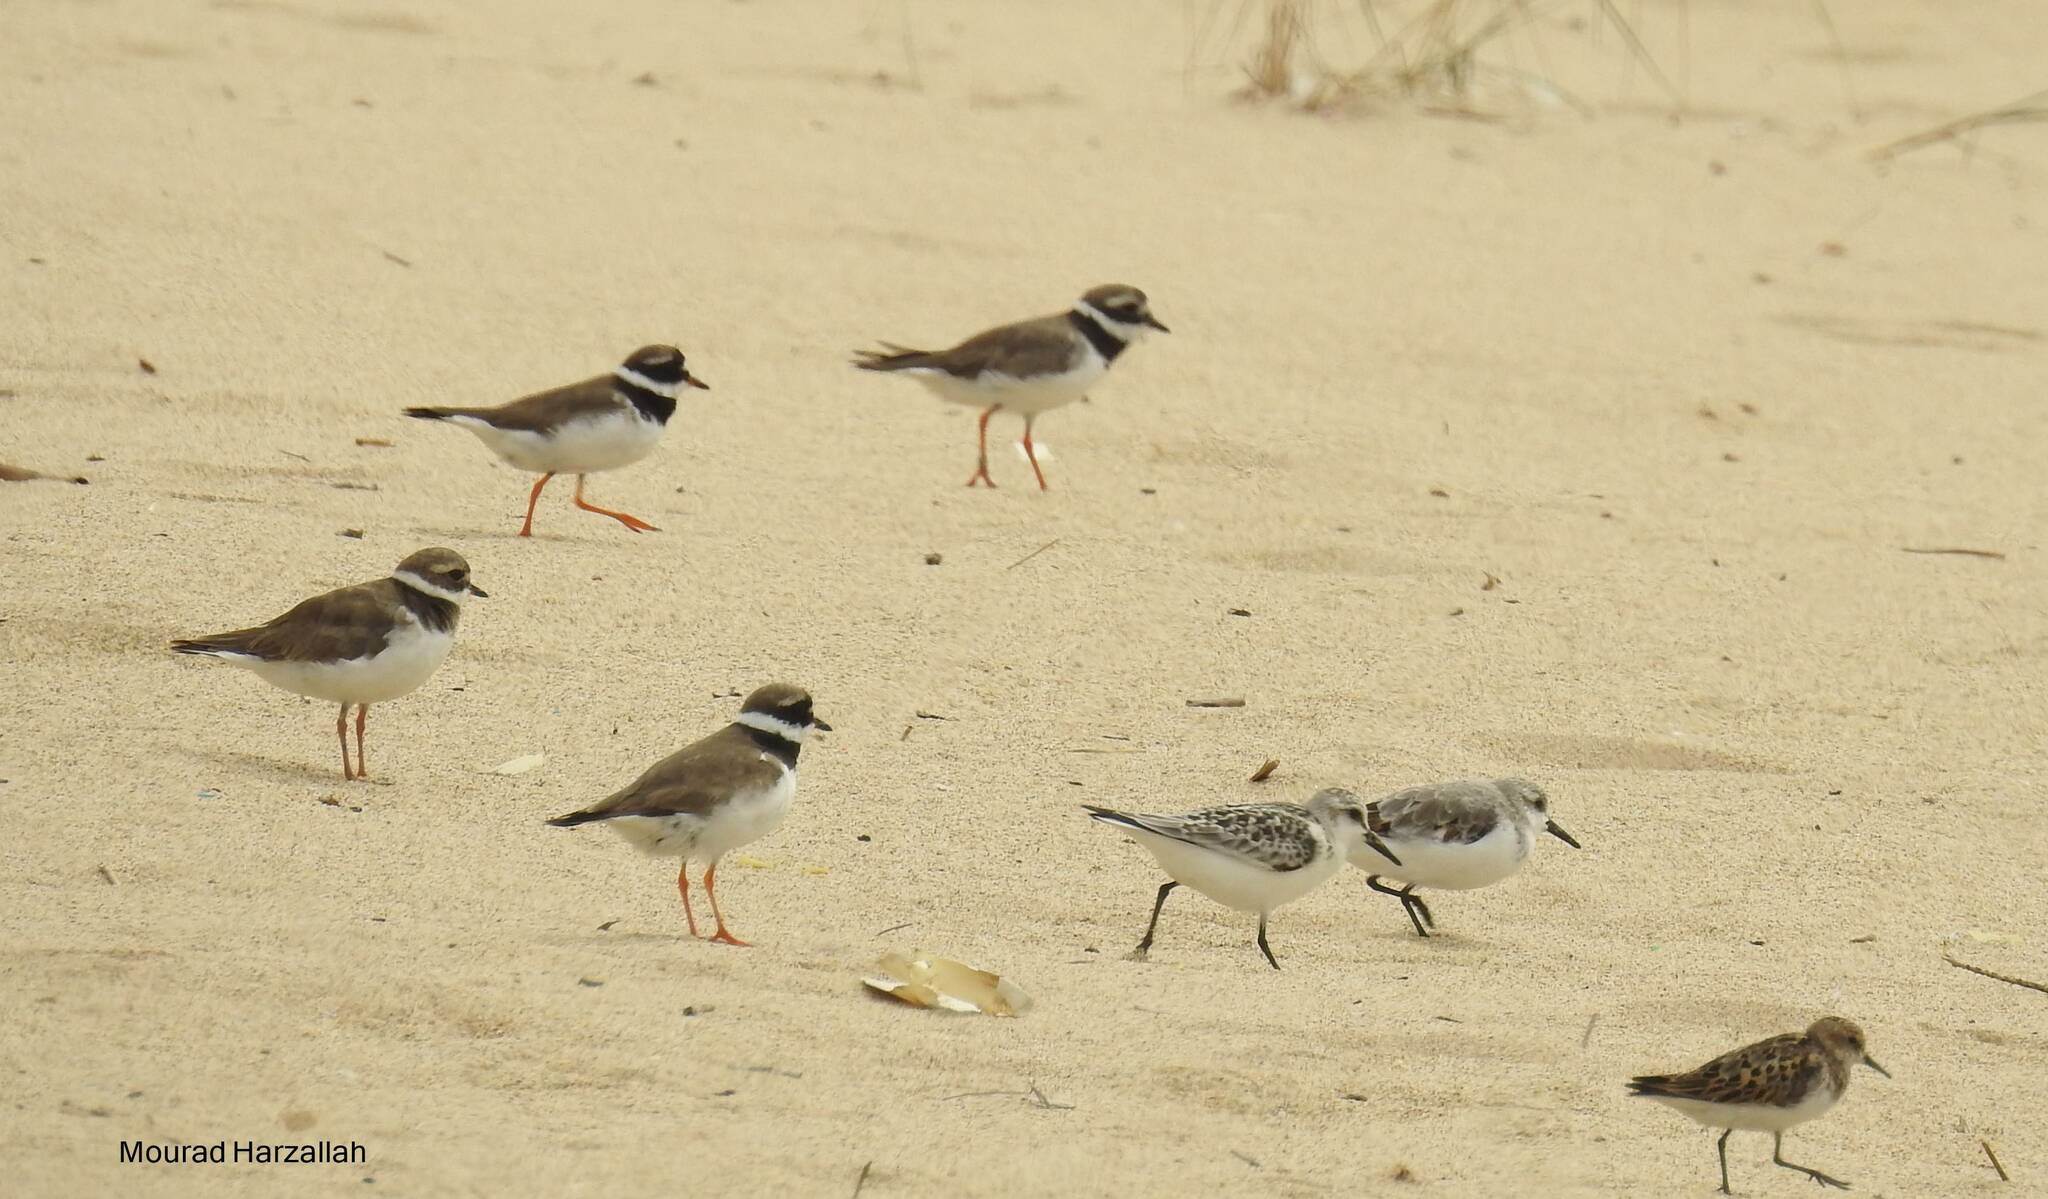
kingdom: Animalia
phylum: Chordata
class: Aves
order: Charadriiformes
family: Charadriidae
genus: Charadrius
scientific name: Charadrius hiaticula
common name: Common ringed plover
